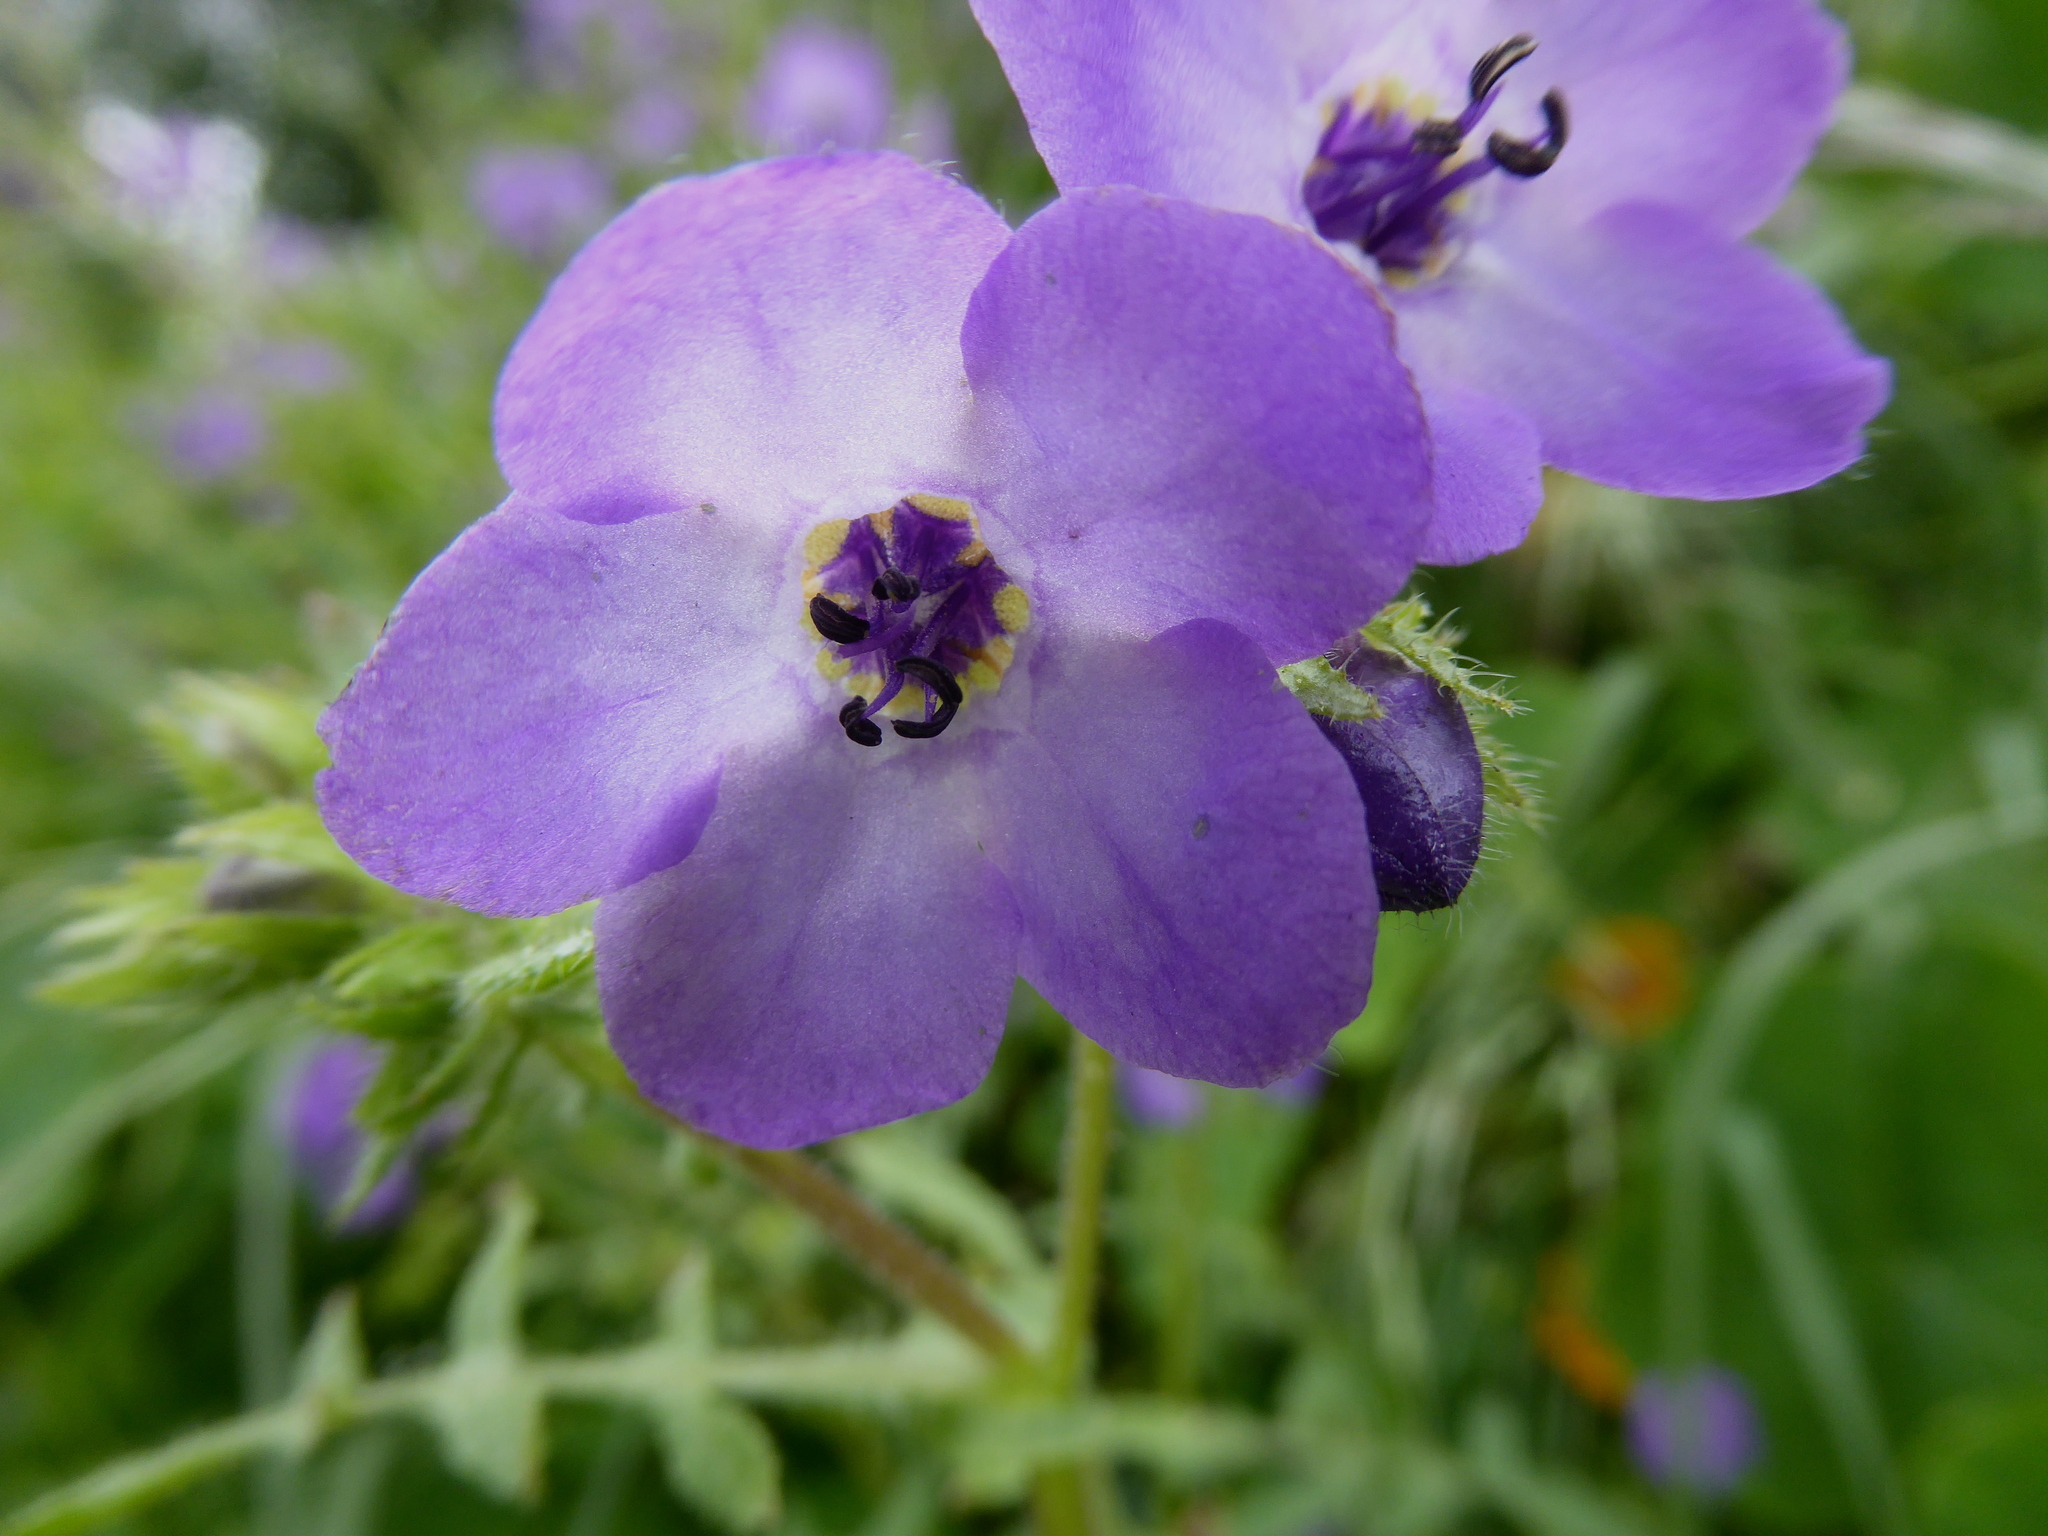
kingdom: Plantae
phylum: Tracheophyta
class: Magnoliopsida
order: Boraginales
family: Hydrophyllaceae
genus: Pholistoma
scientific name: Pholistoma auritum
